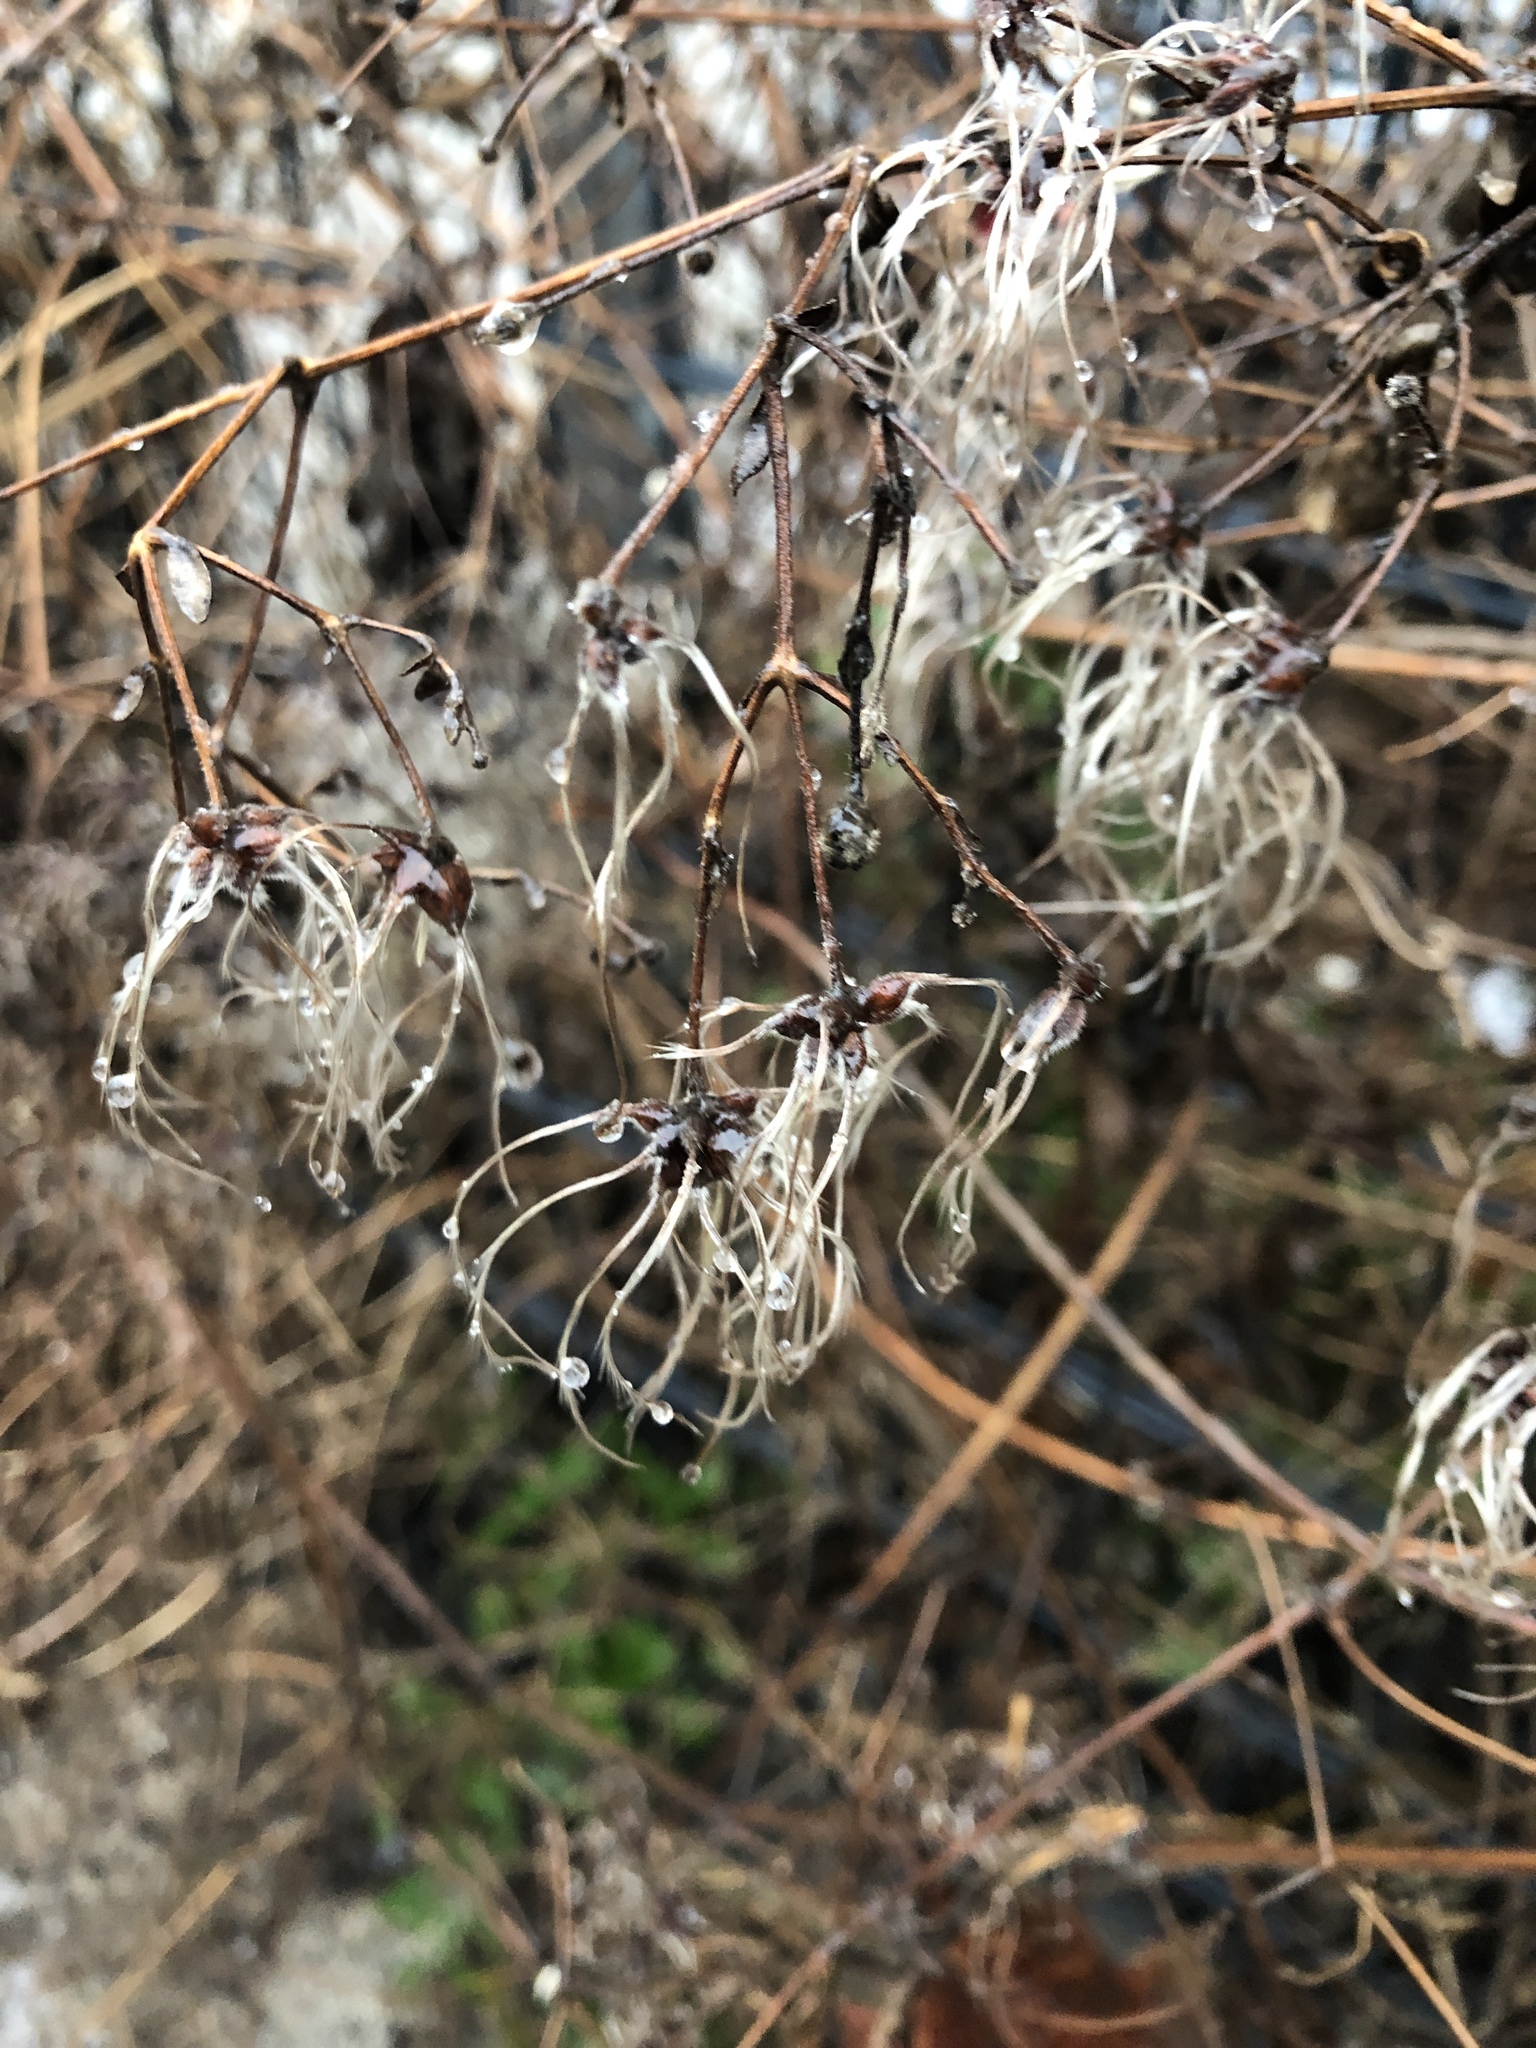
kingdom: Plantae
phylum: Tracheophyta
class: Magnoliopsida
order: Ranunculales
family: Ranunculaceae
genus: Clematis
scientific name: Clematis vitalba
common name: Evergreen clematis
